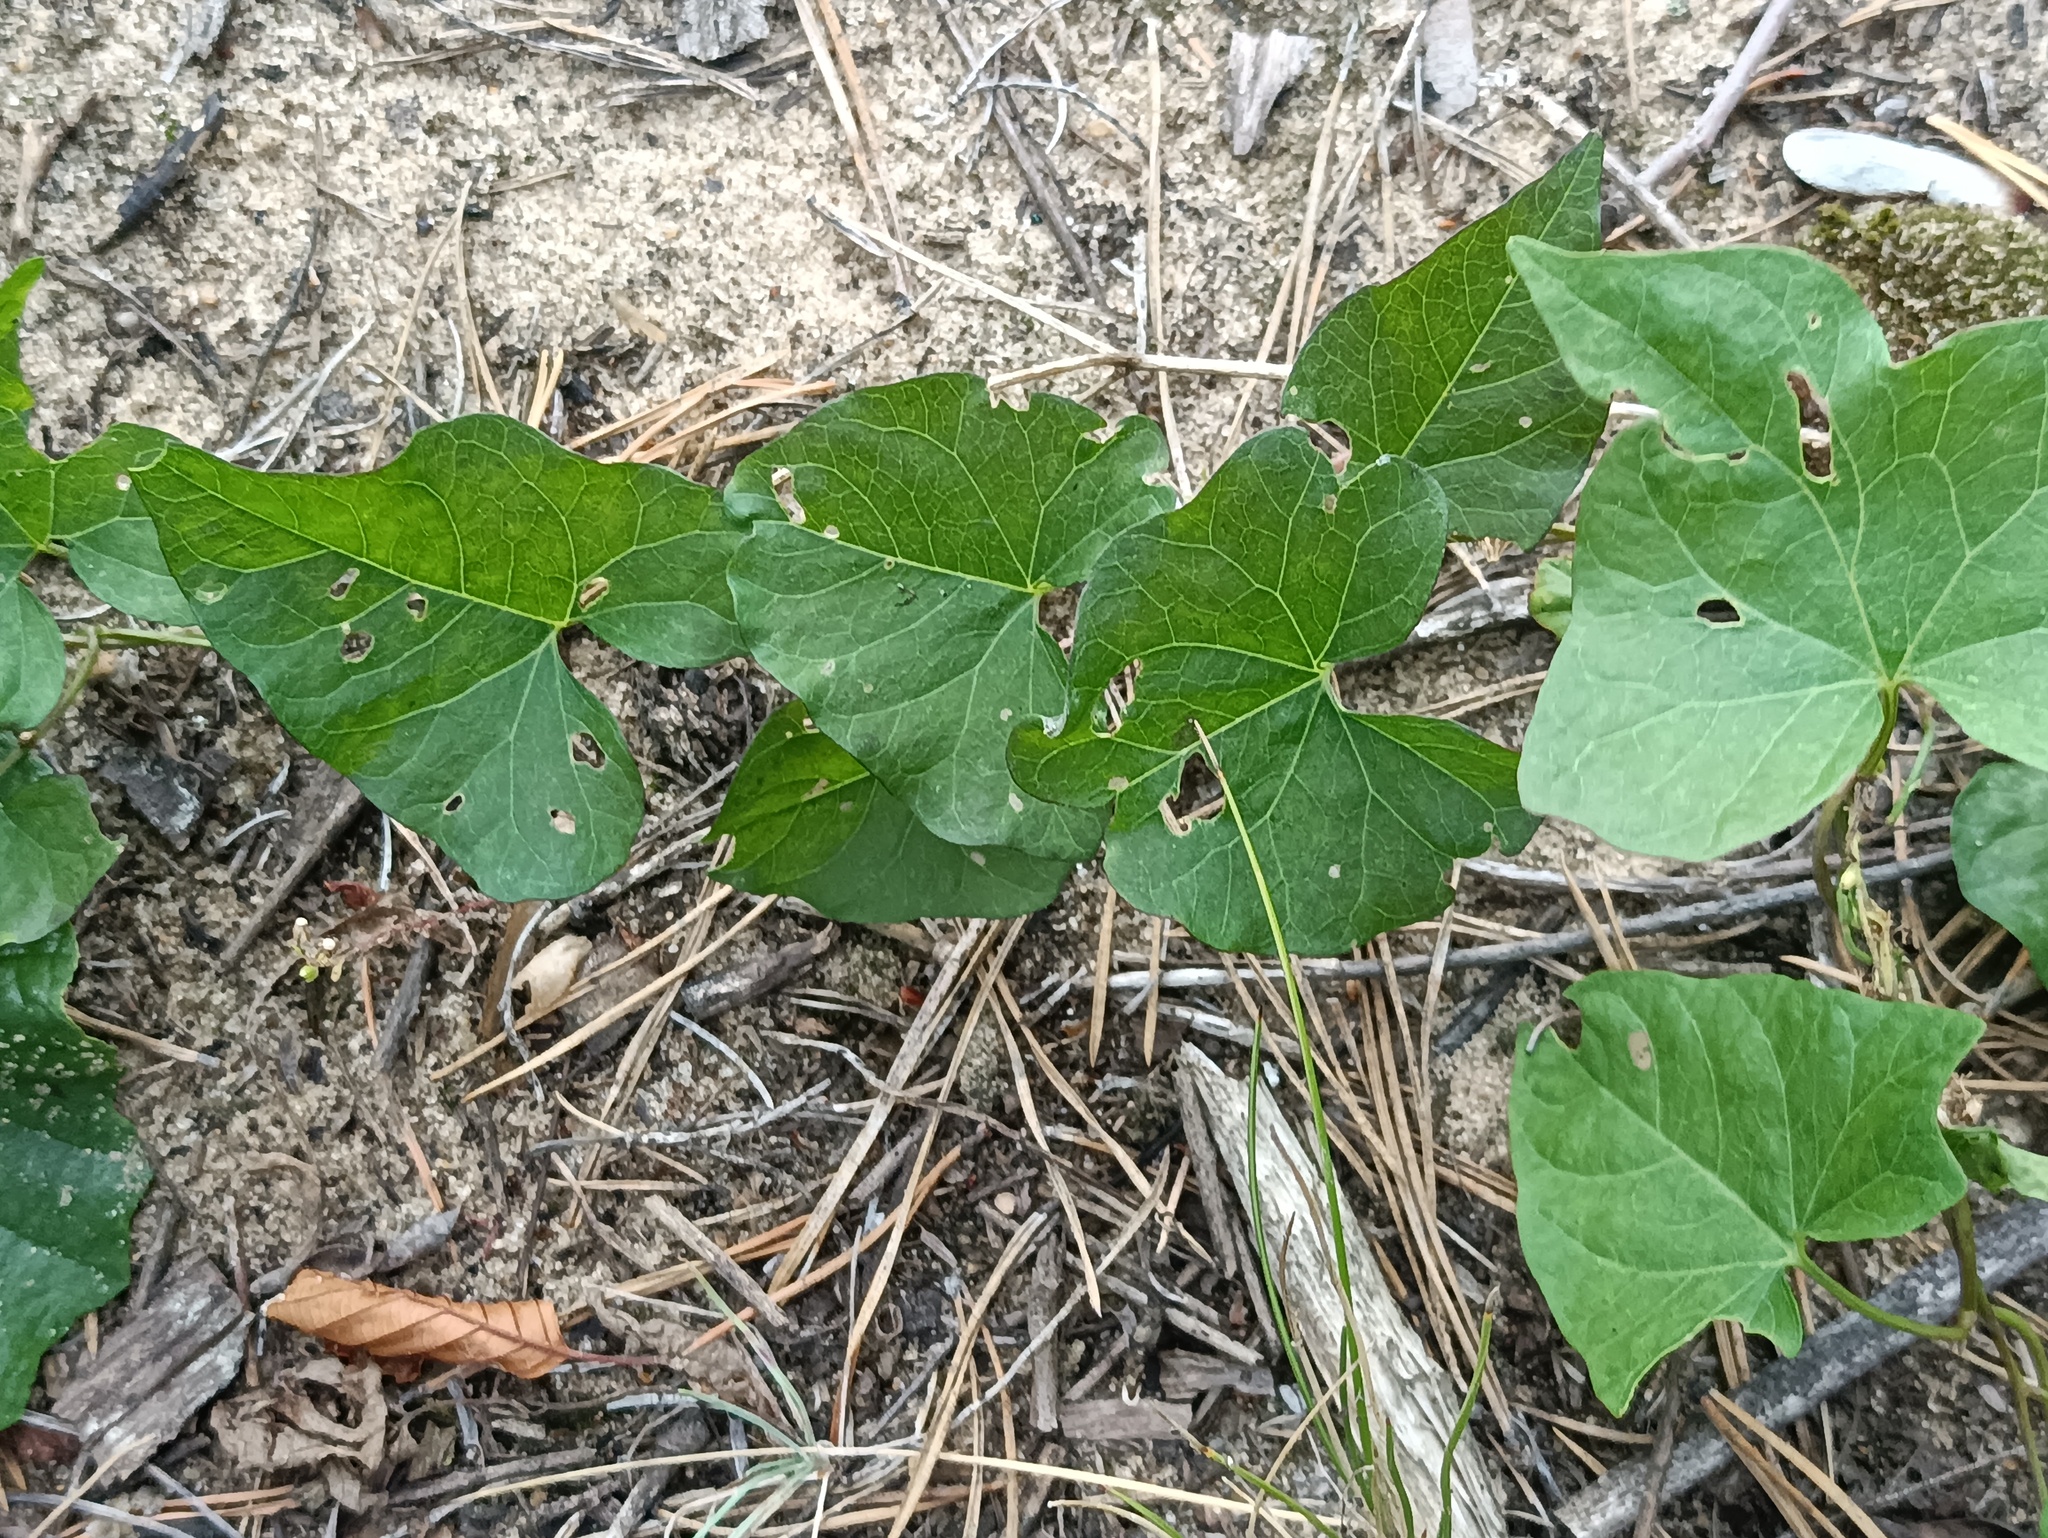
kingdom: Plantae
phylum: Tracheophyta
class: Magnoliopsida
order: Piperales
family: Aristolochiaceae
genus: Aristolochia
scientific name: Aristolochia clematitis
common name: Birthwort
